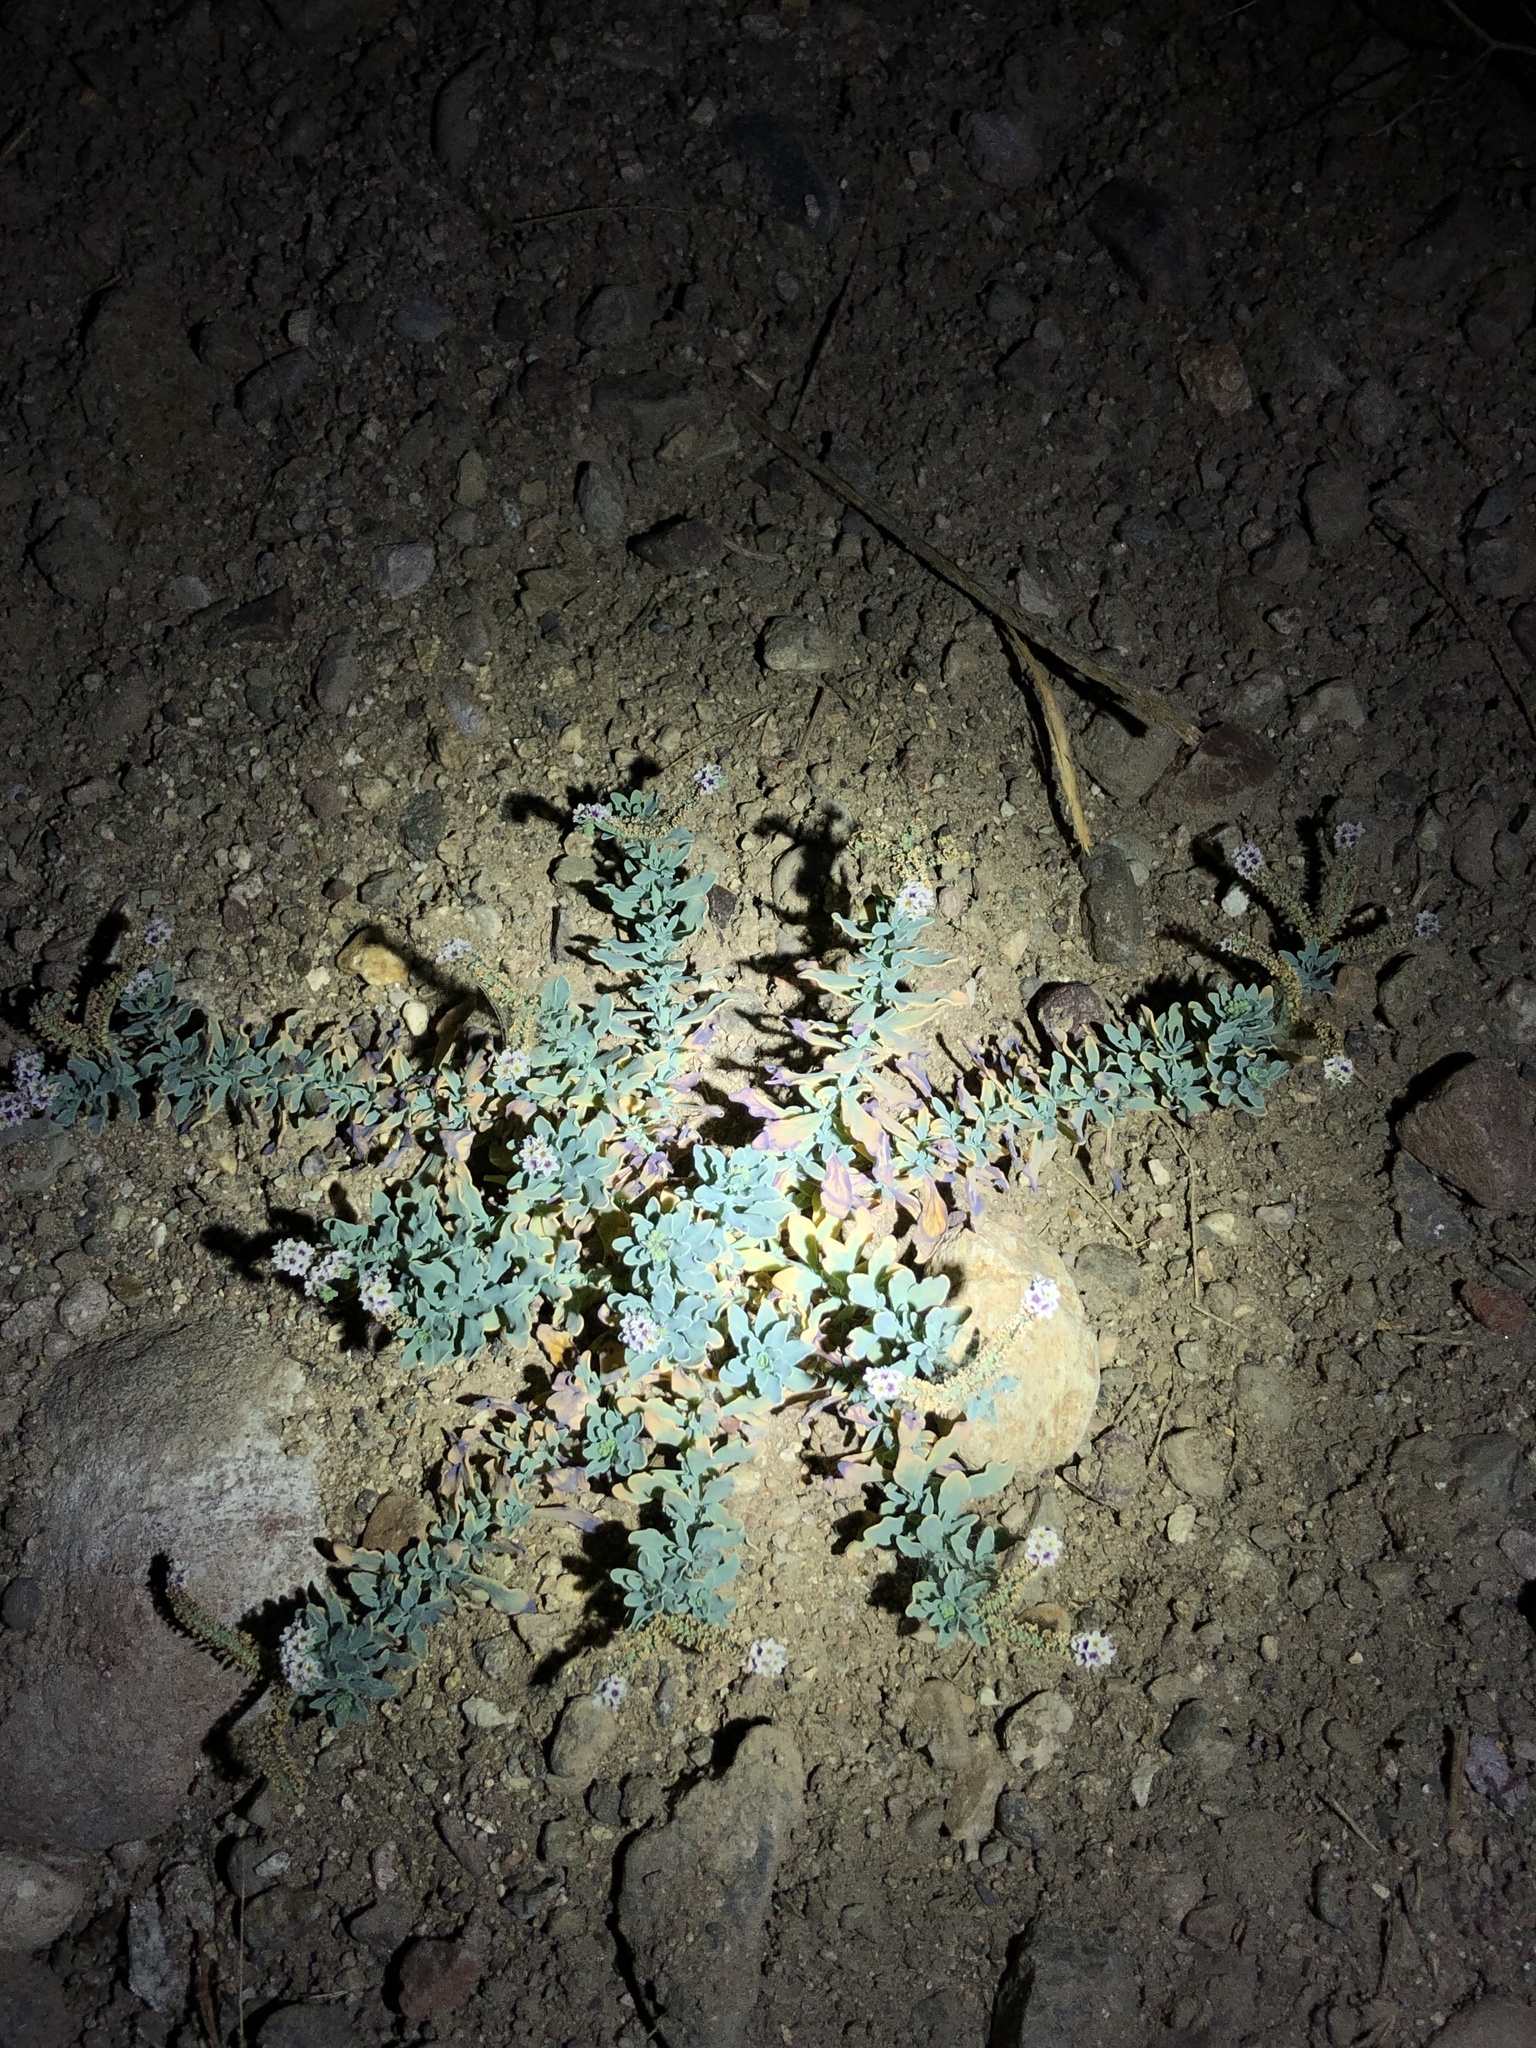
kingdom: Plantae
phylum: Tracheophyta
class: Magnoliopsida
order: Boraginales
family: Heliotropiaceae
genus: Heliotropium
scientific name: Heliotropium curassavicum
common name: Seaside heliotrope
